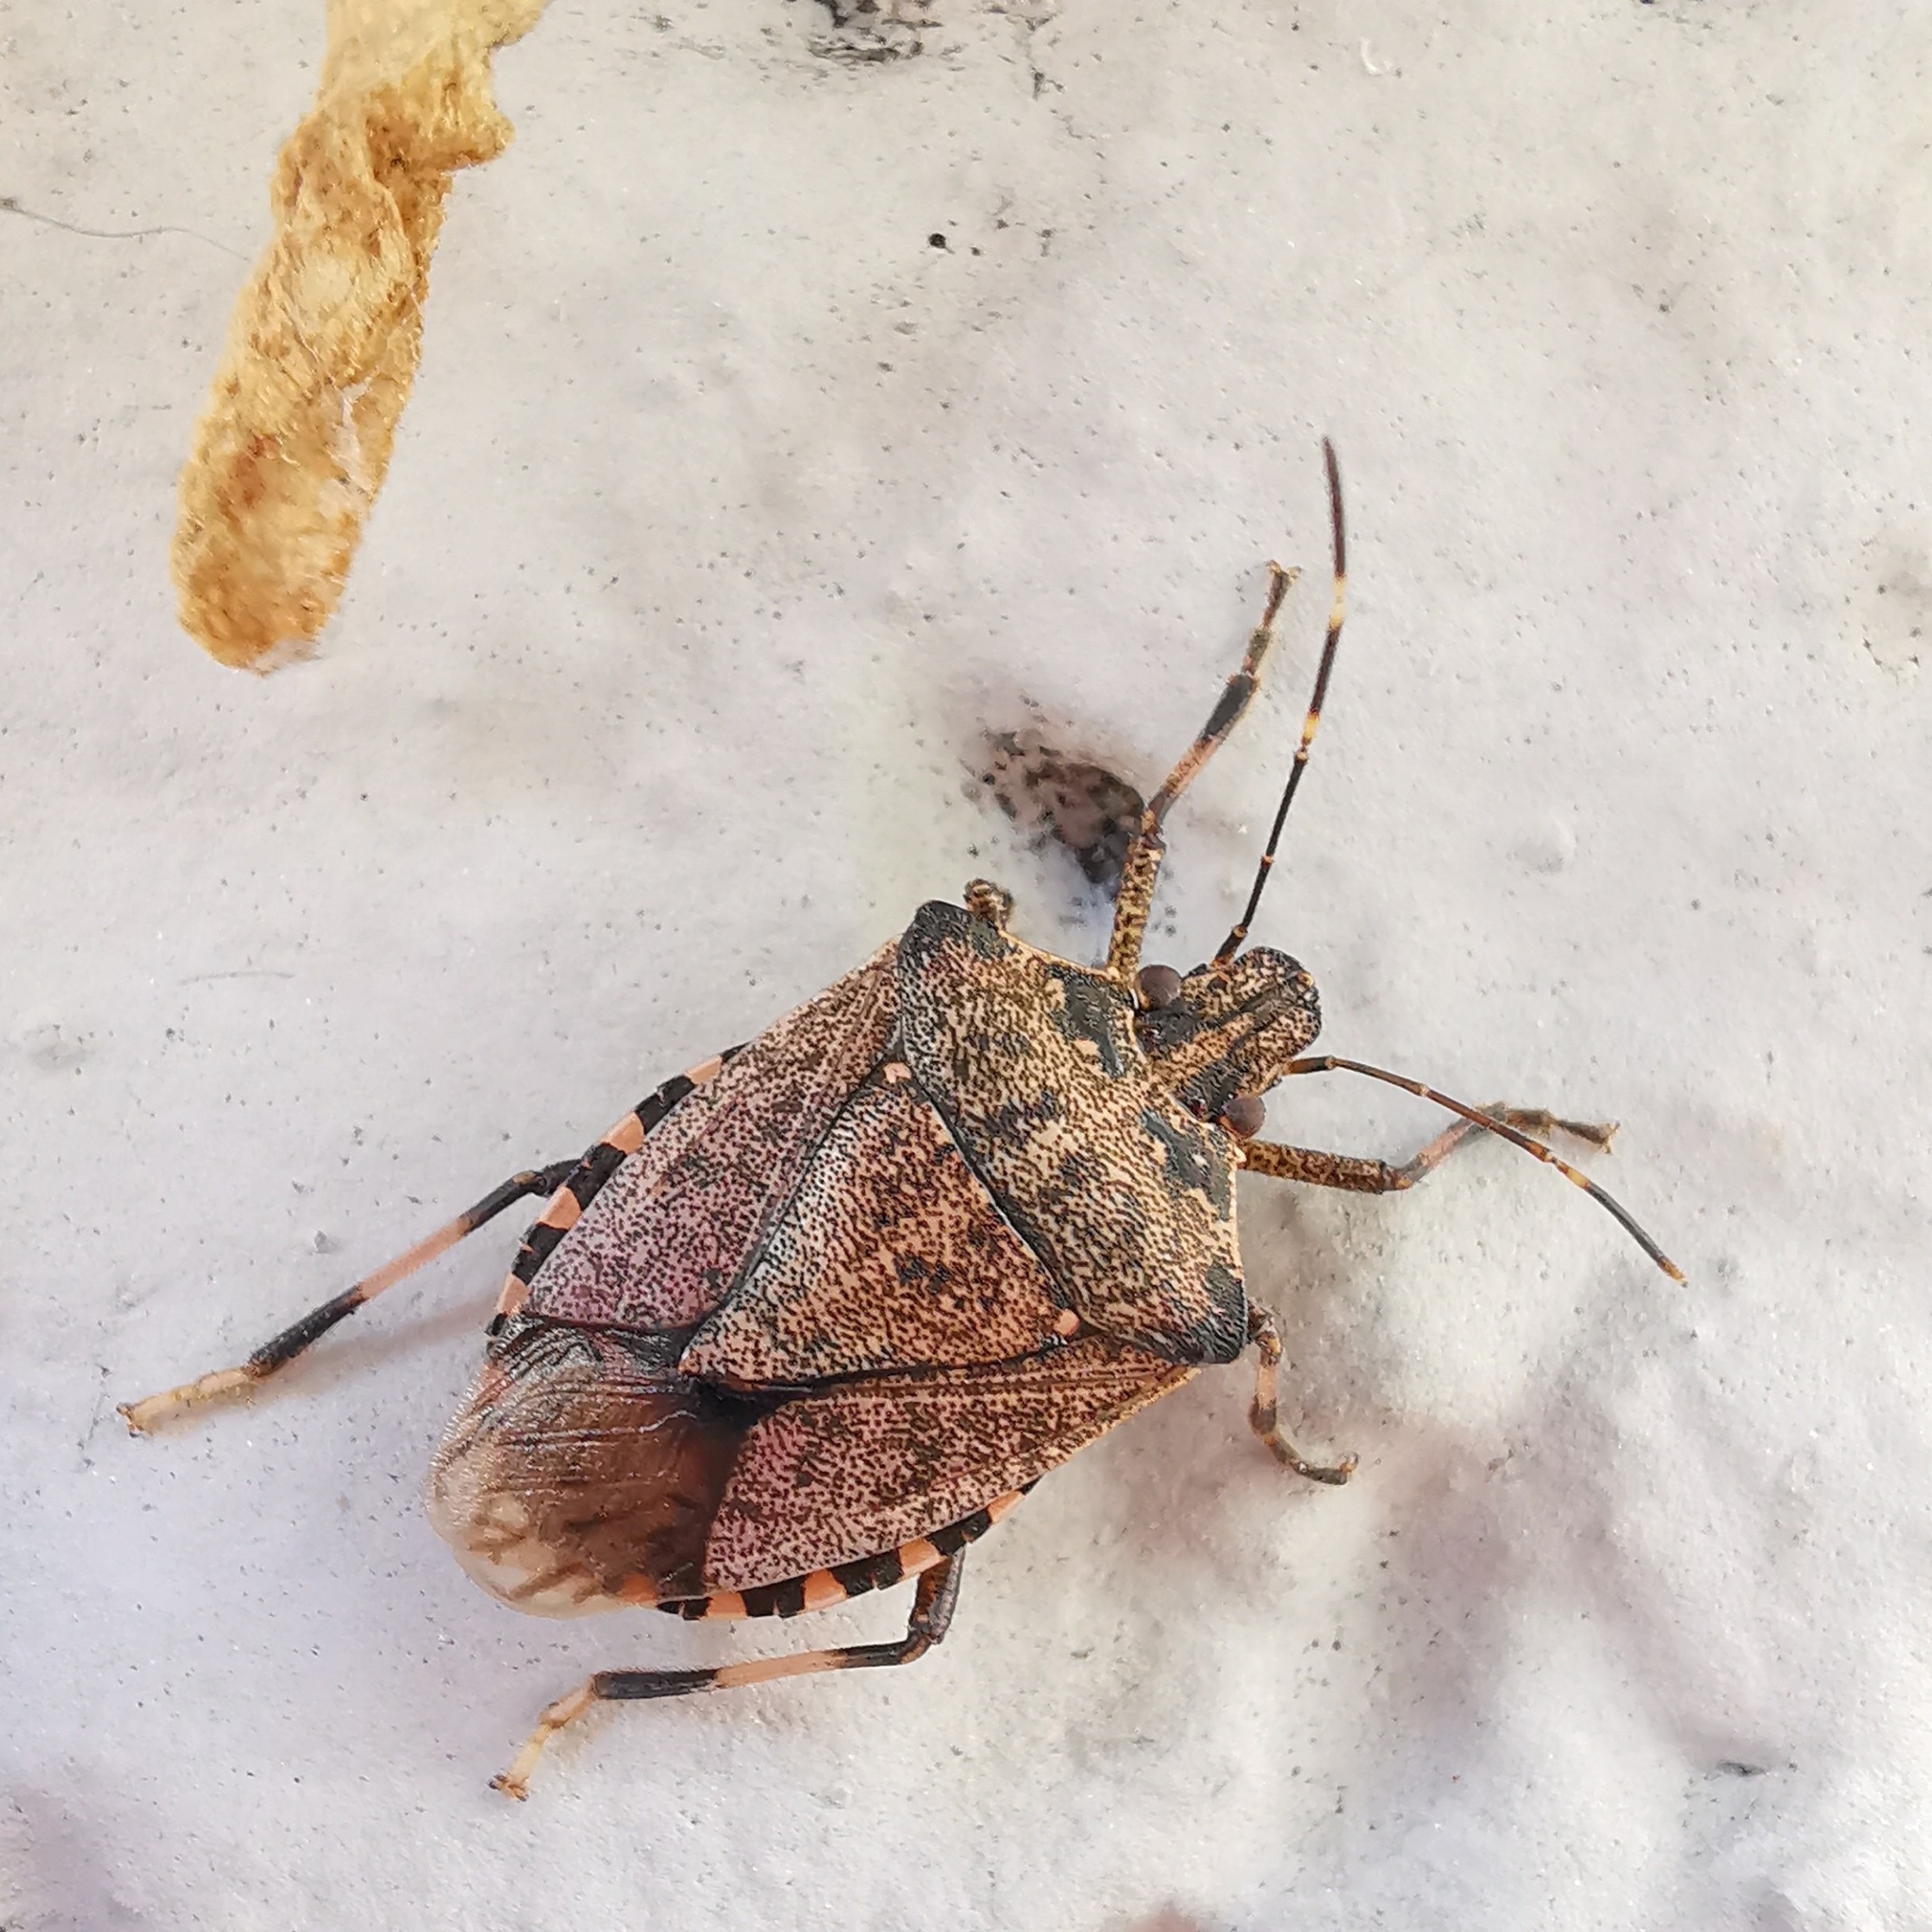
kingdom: Animalia
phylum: Arthropoda
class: Insecta
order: Hemiptera
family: Pentatomidae
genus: Halyomorpha
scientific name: Halyomorpha halys
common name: Brown marmorated stink bug
